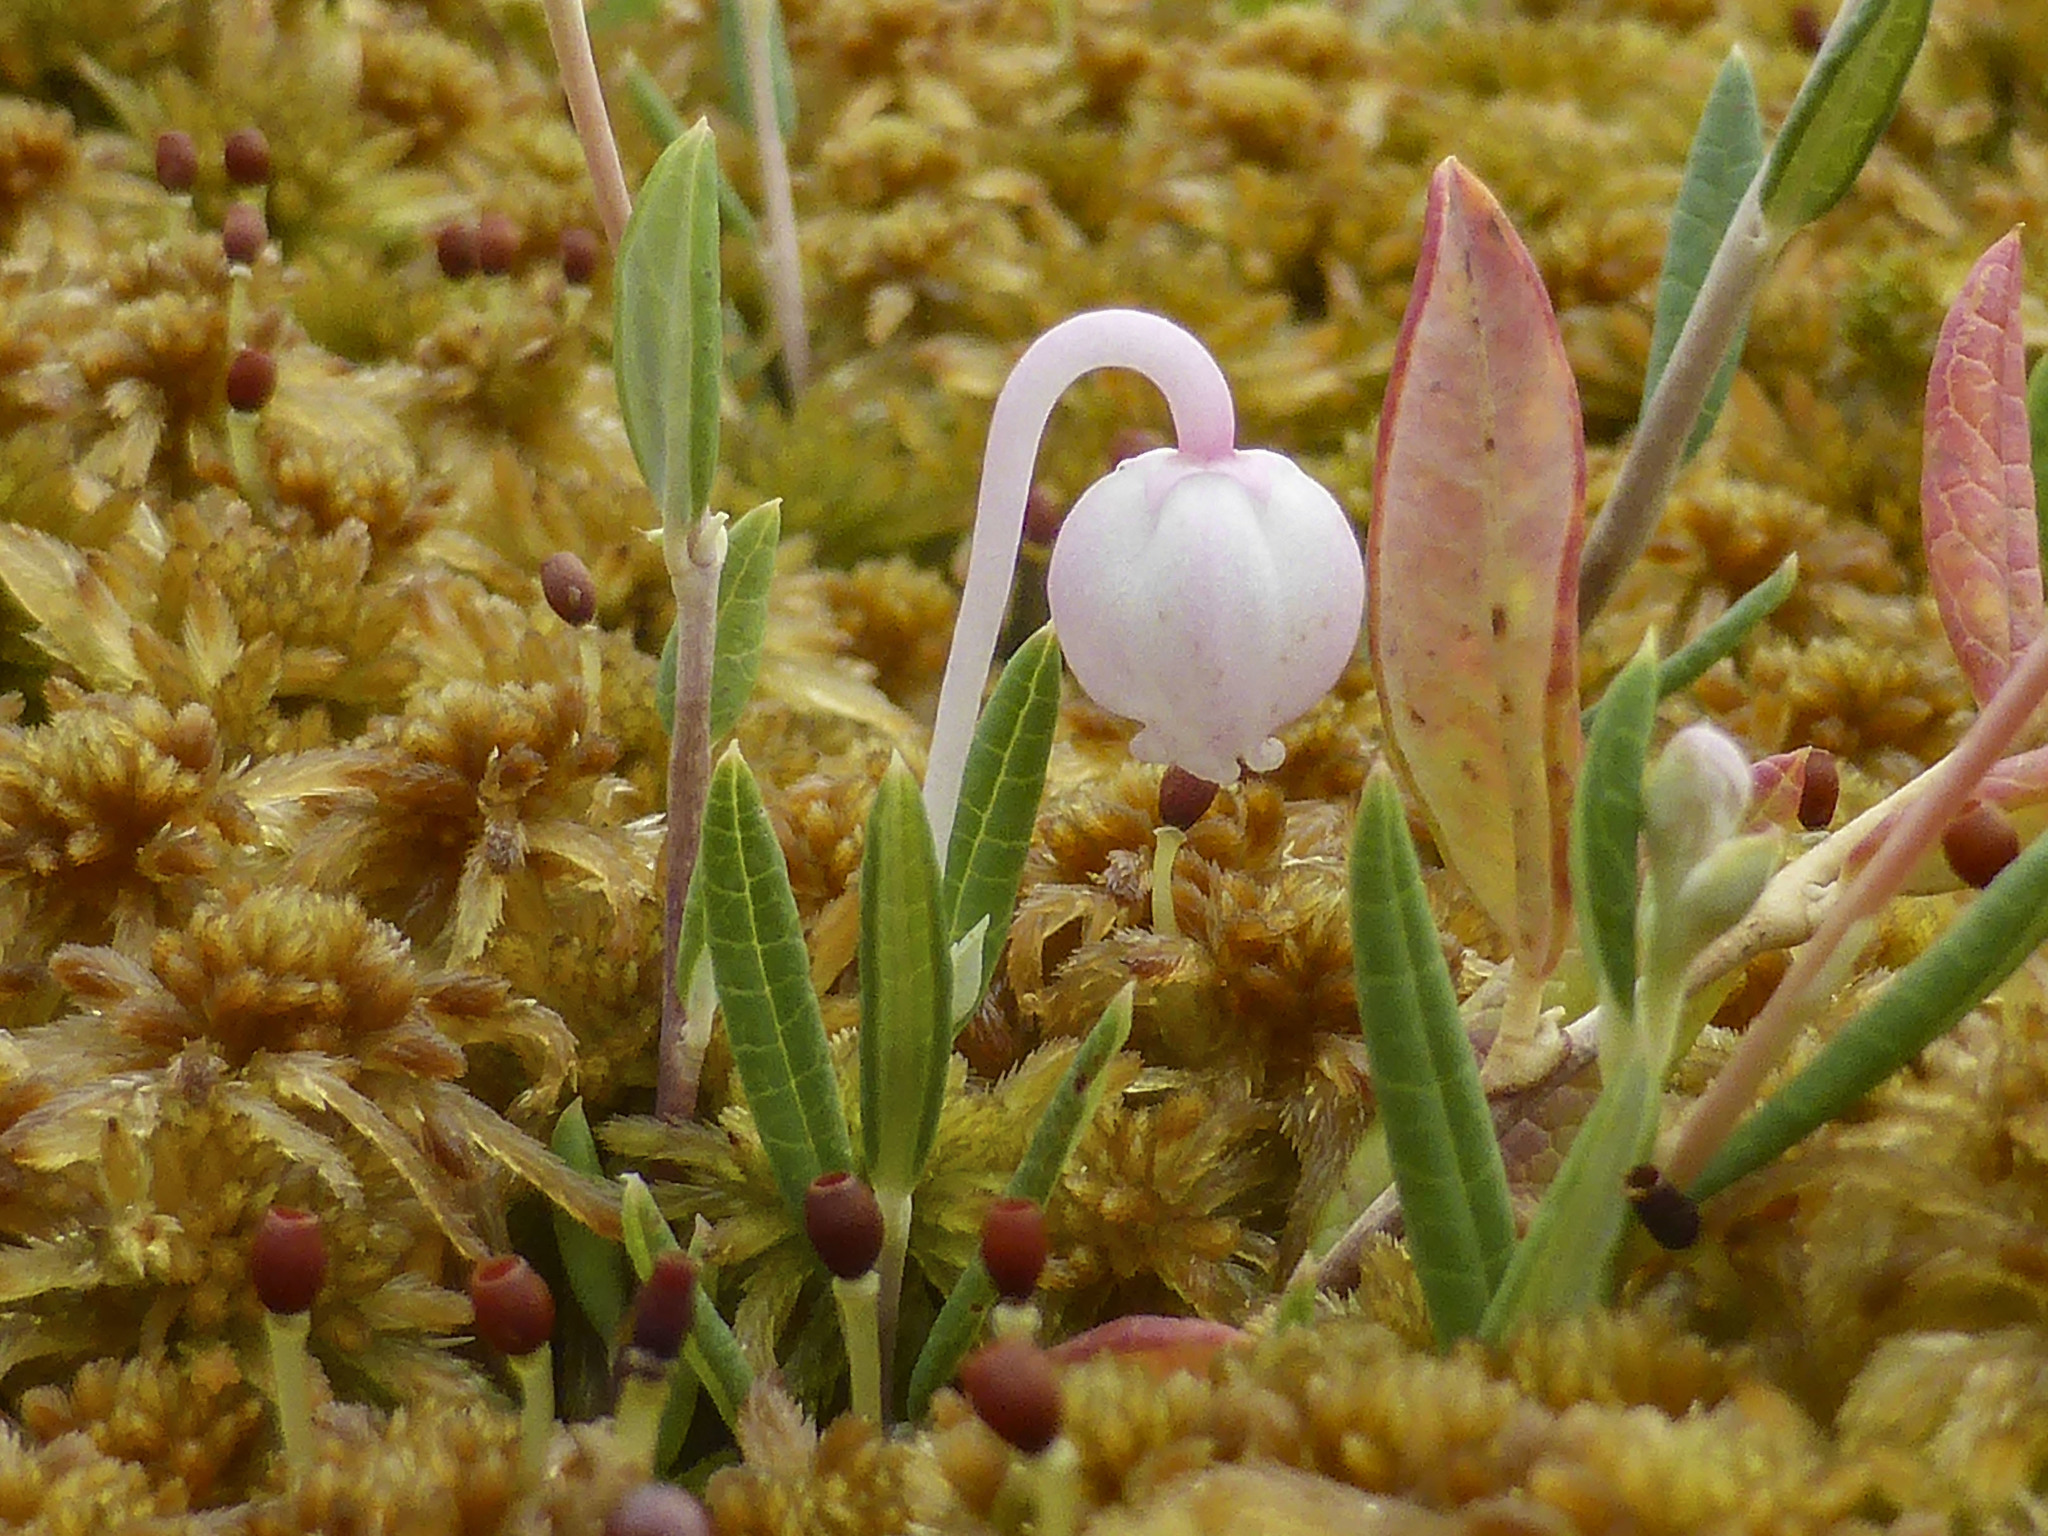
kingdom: Plantae
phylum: Tracheophyta
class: Magnoliopsida
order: Ericales
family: Ericaceae
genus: Andromeda
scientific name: Andromeda polifolia
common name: Bog-rosemary
